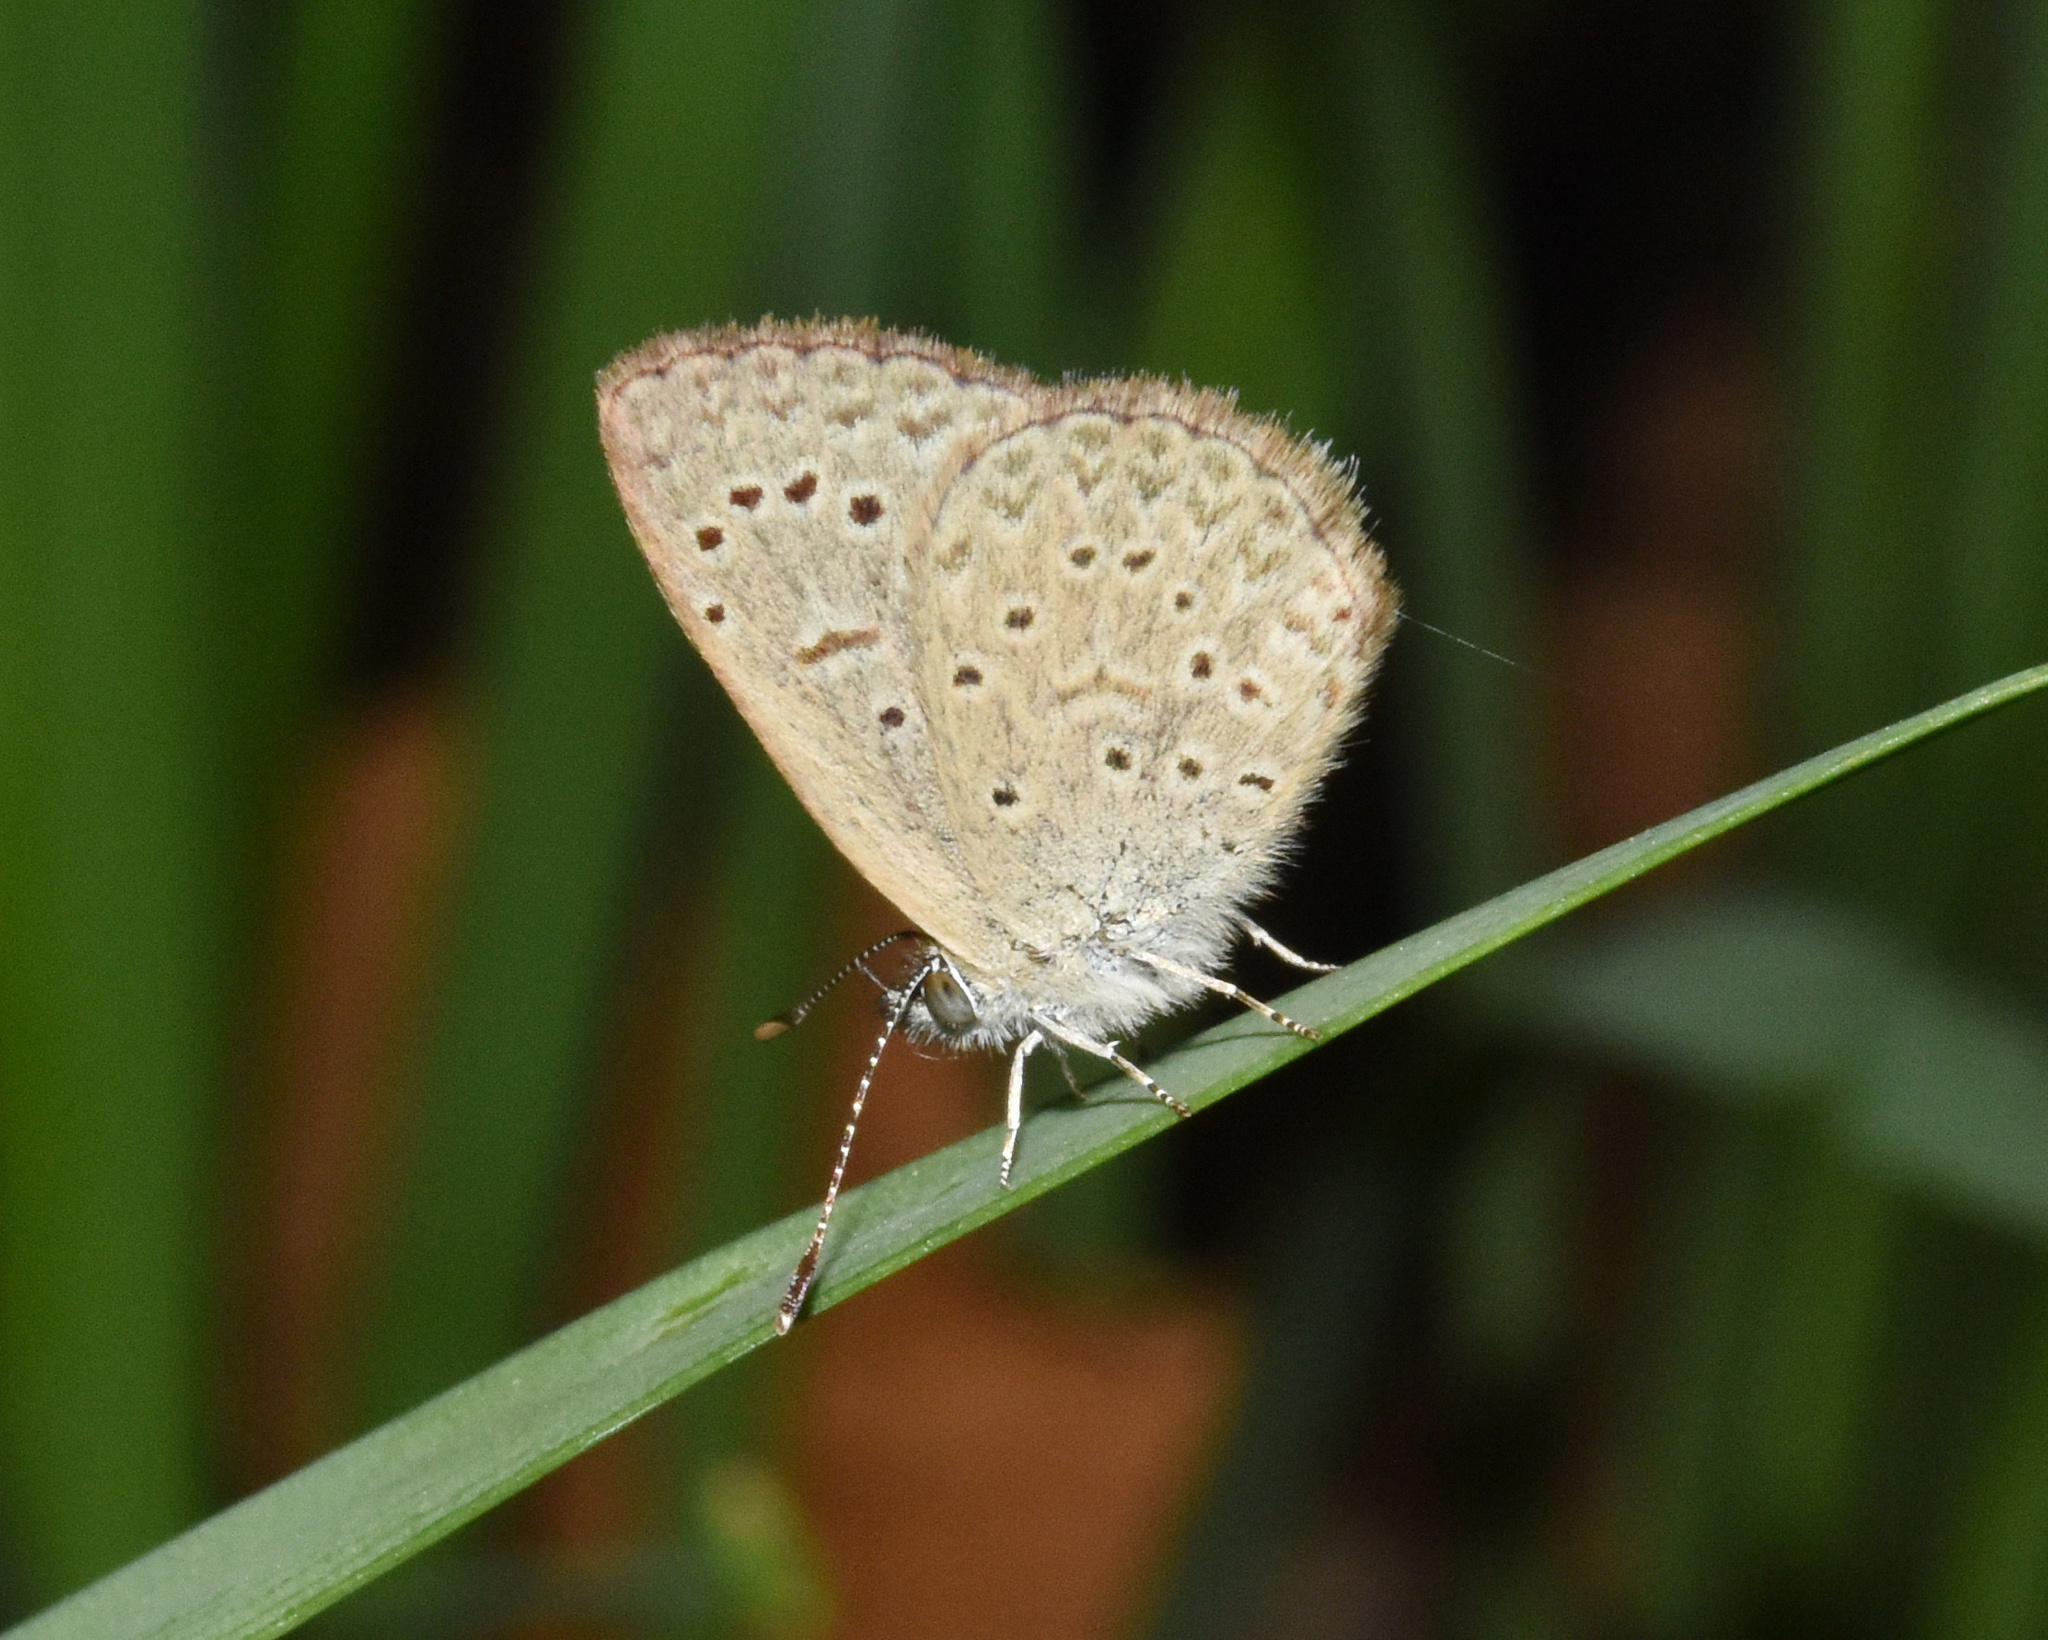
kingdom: Animalia
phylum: Arthropoda
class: Insecta
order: Lepidoptera
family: Lycaenidae
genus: Zizeeria
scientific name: Zizeeria knysna
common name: African grass blue
